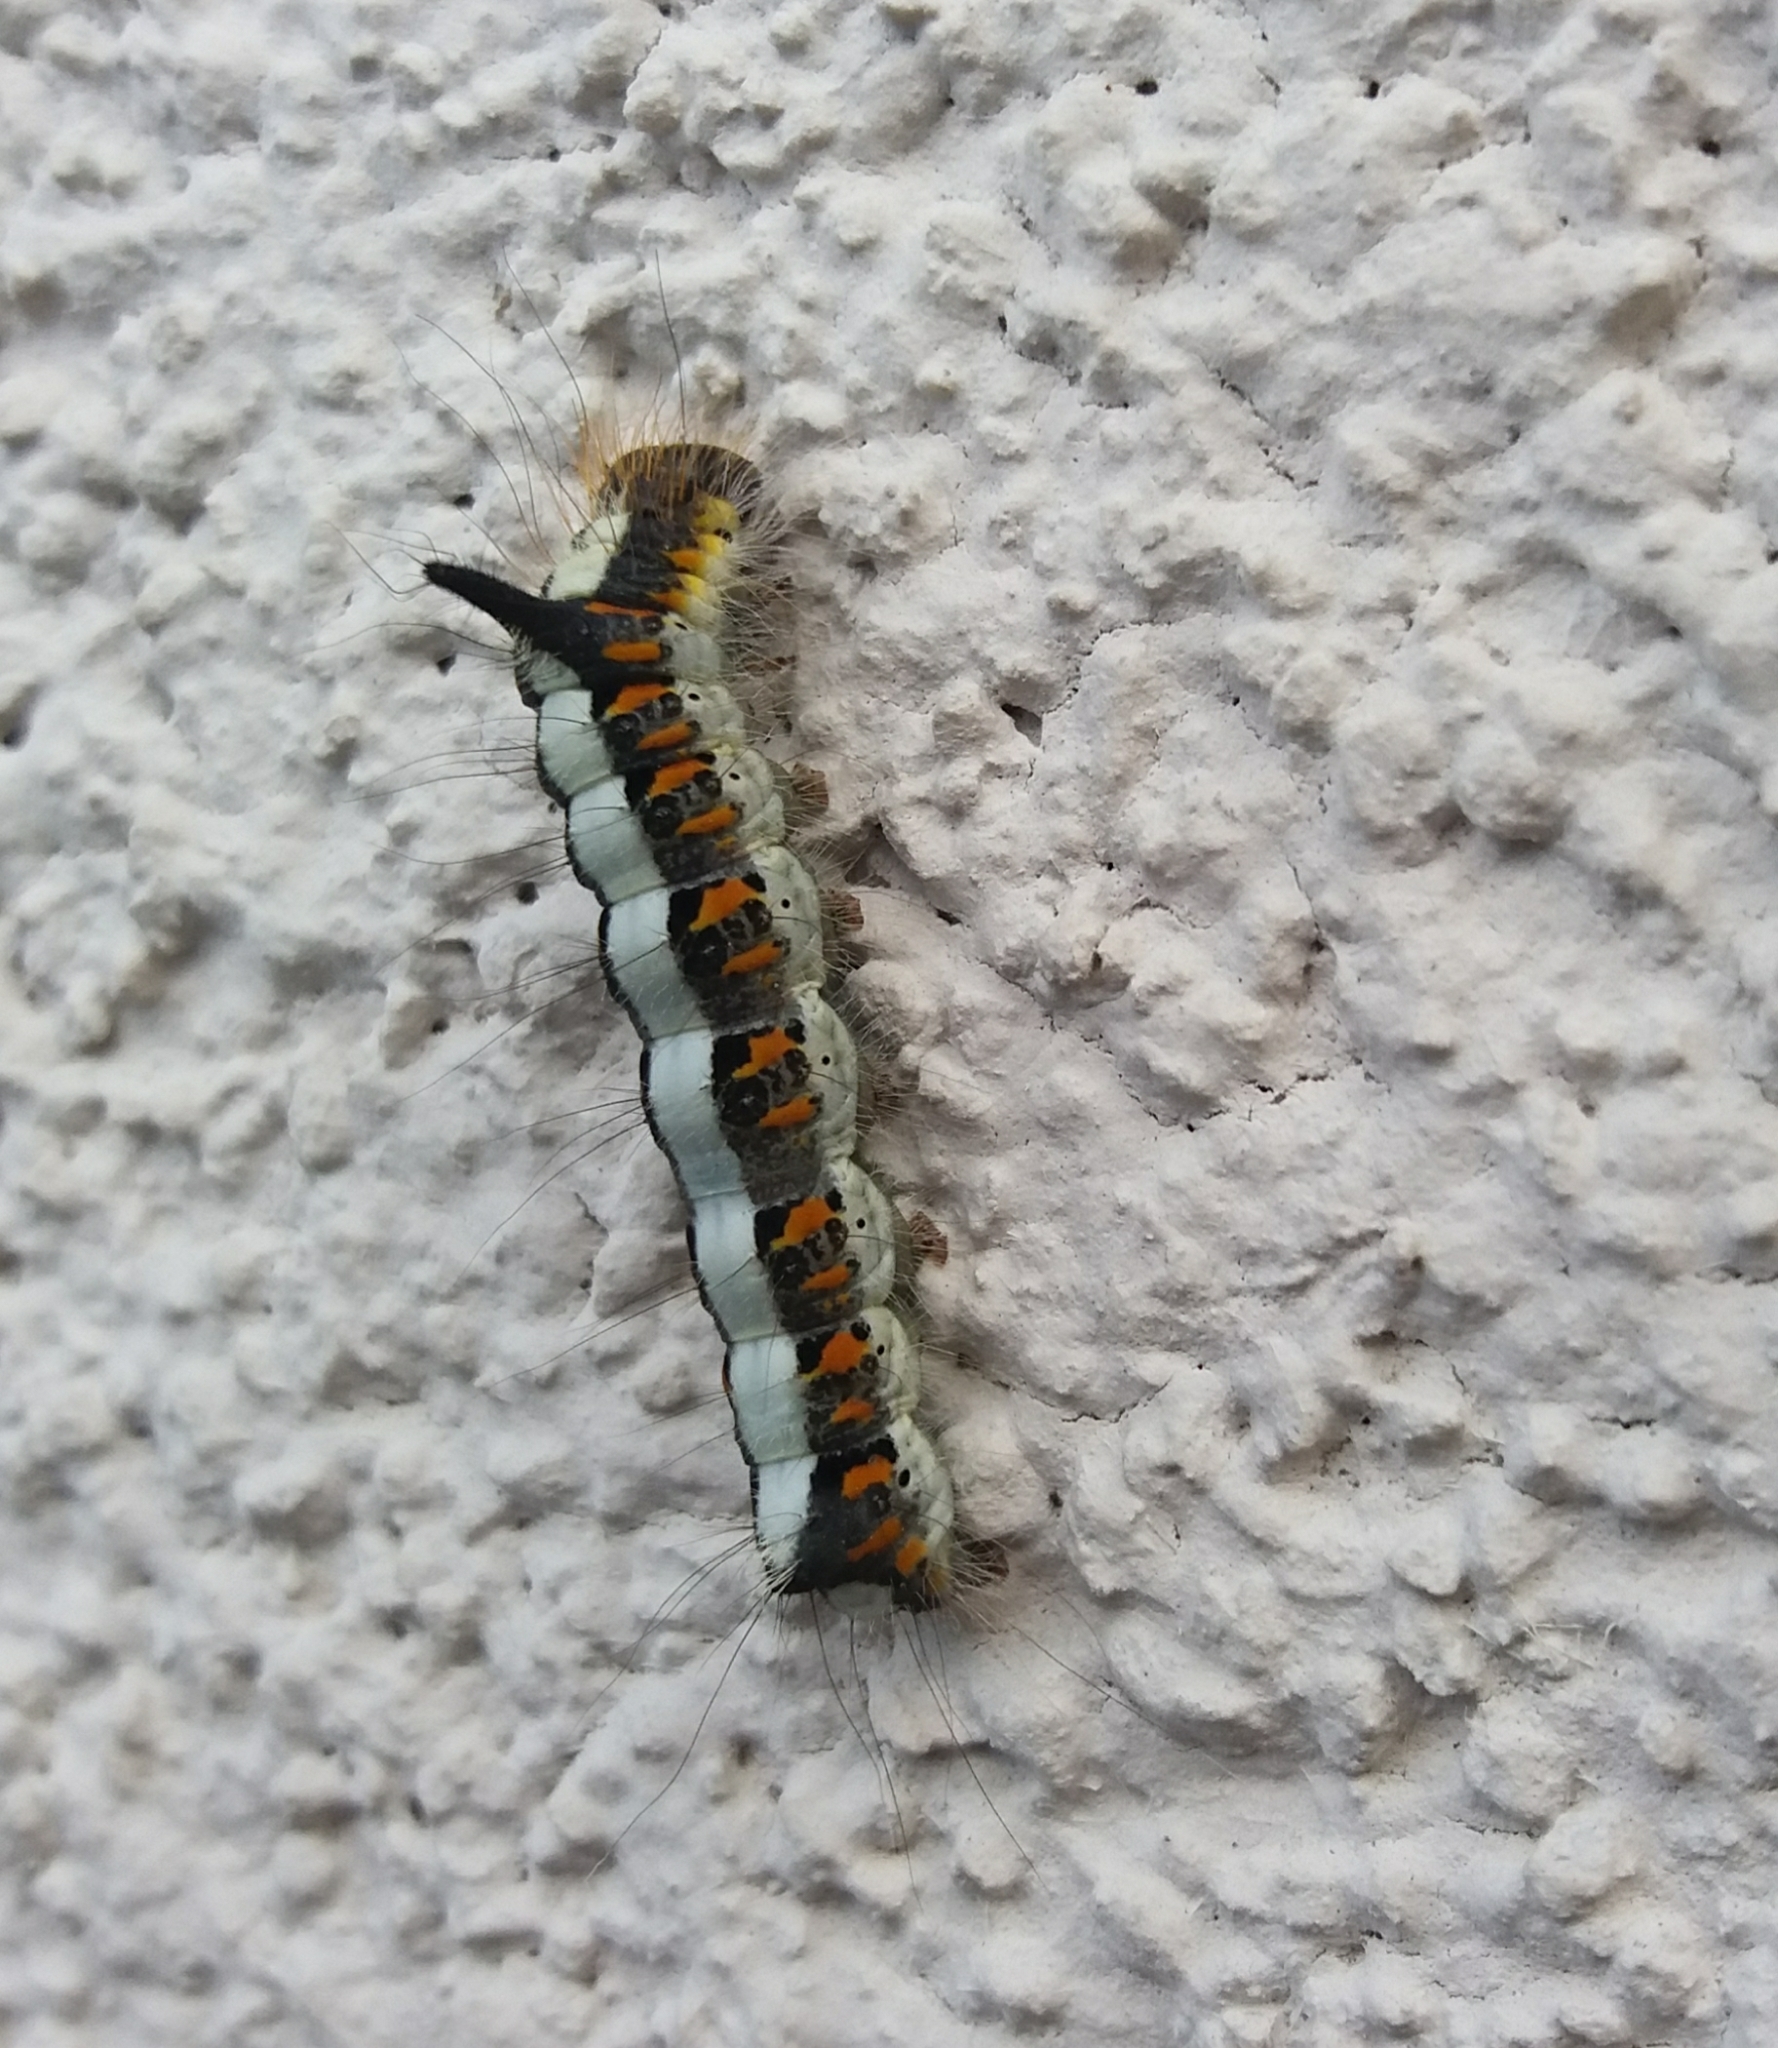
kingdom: Animalia
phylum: Arthropoda
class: Insecta
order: Lepidoptera
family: Noctuidae
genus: Acronicta
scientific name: Acronicta psi
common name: Grey dagger
